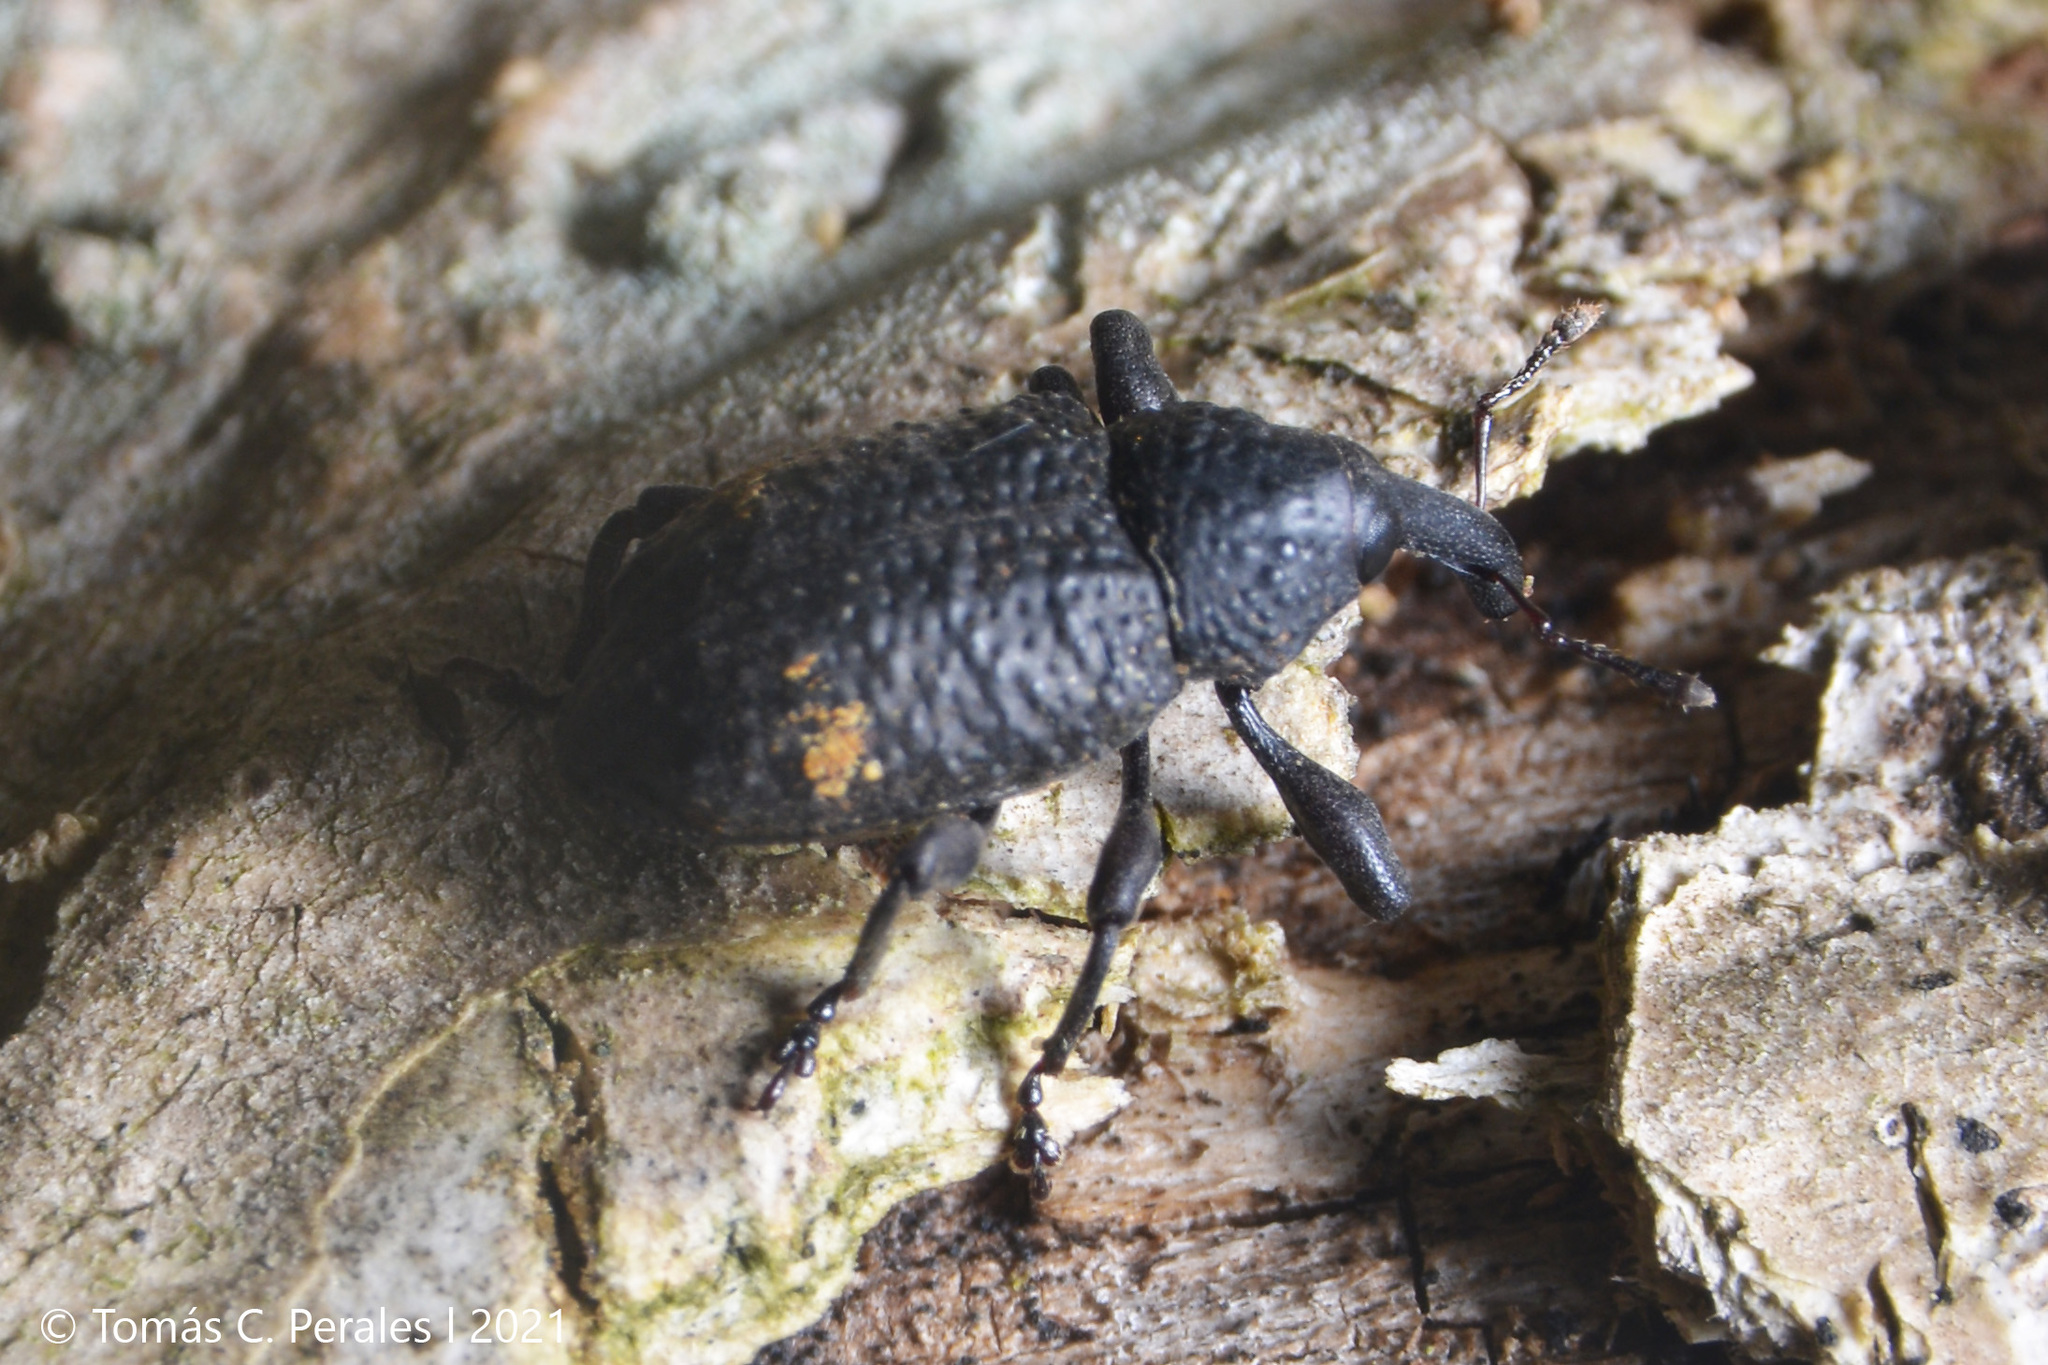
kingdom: Animalia
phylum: Arthropoda
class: Insecta
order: Coleoptera
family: Curculionidae
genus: Heilipus
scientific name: Heilipus tuberculosus
